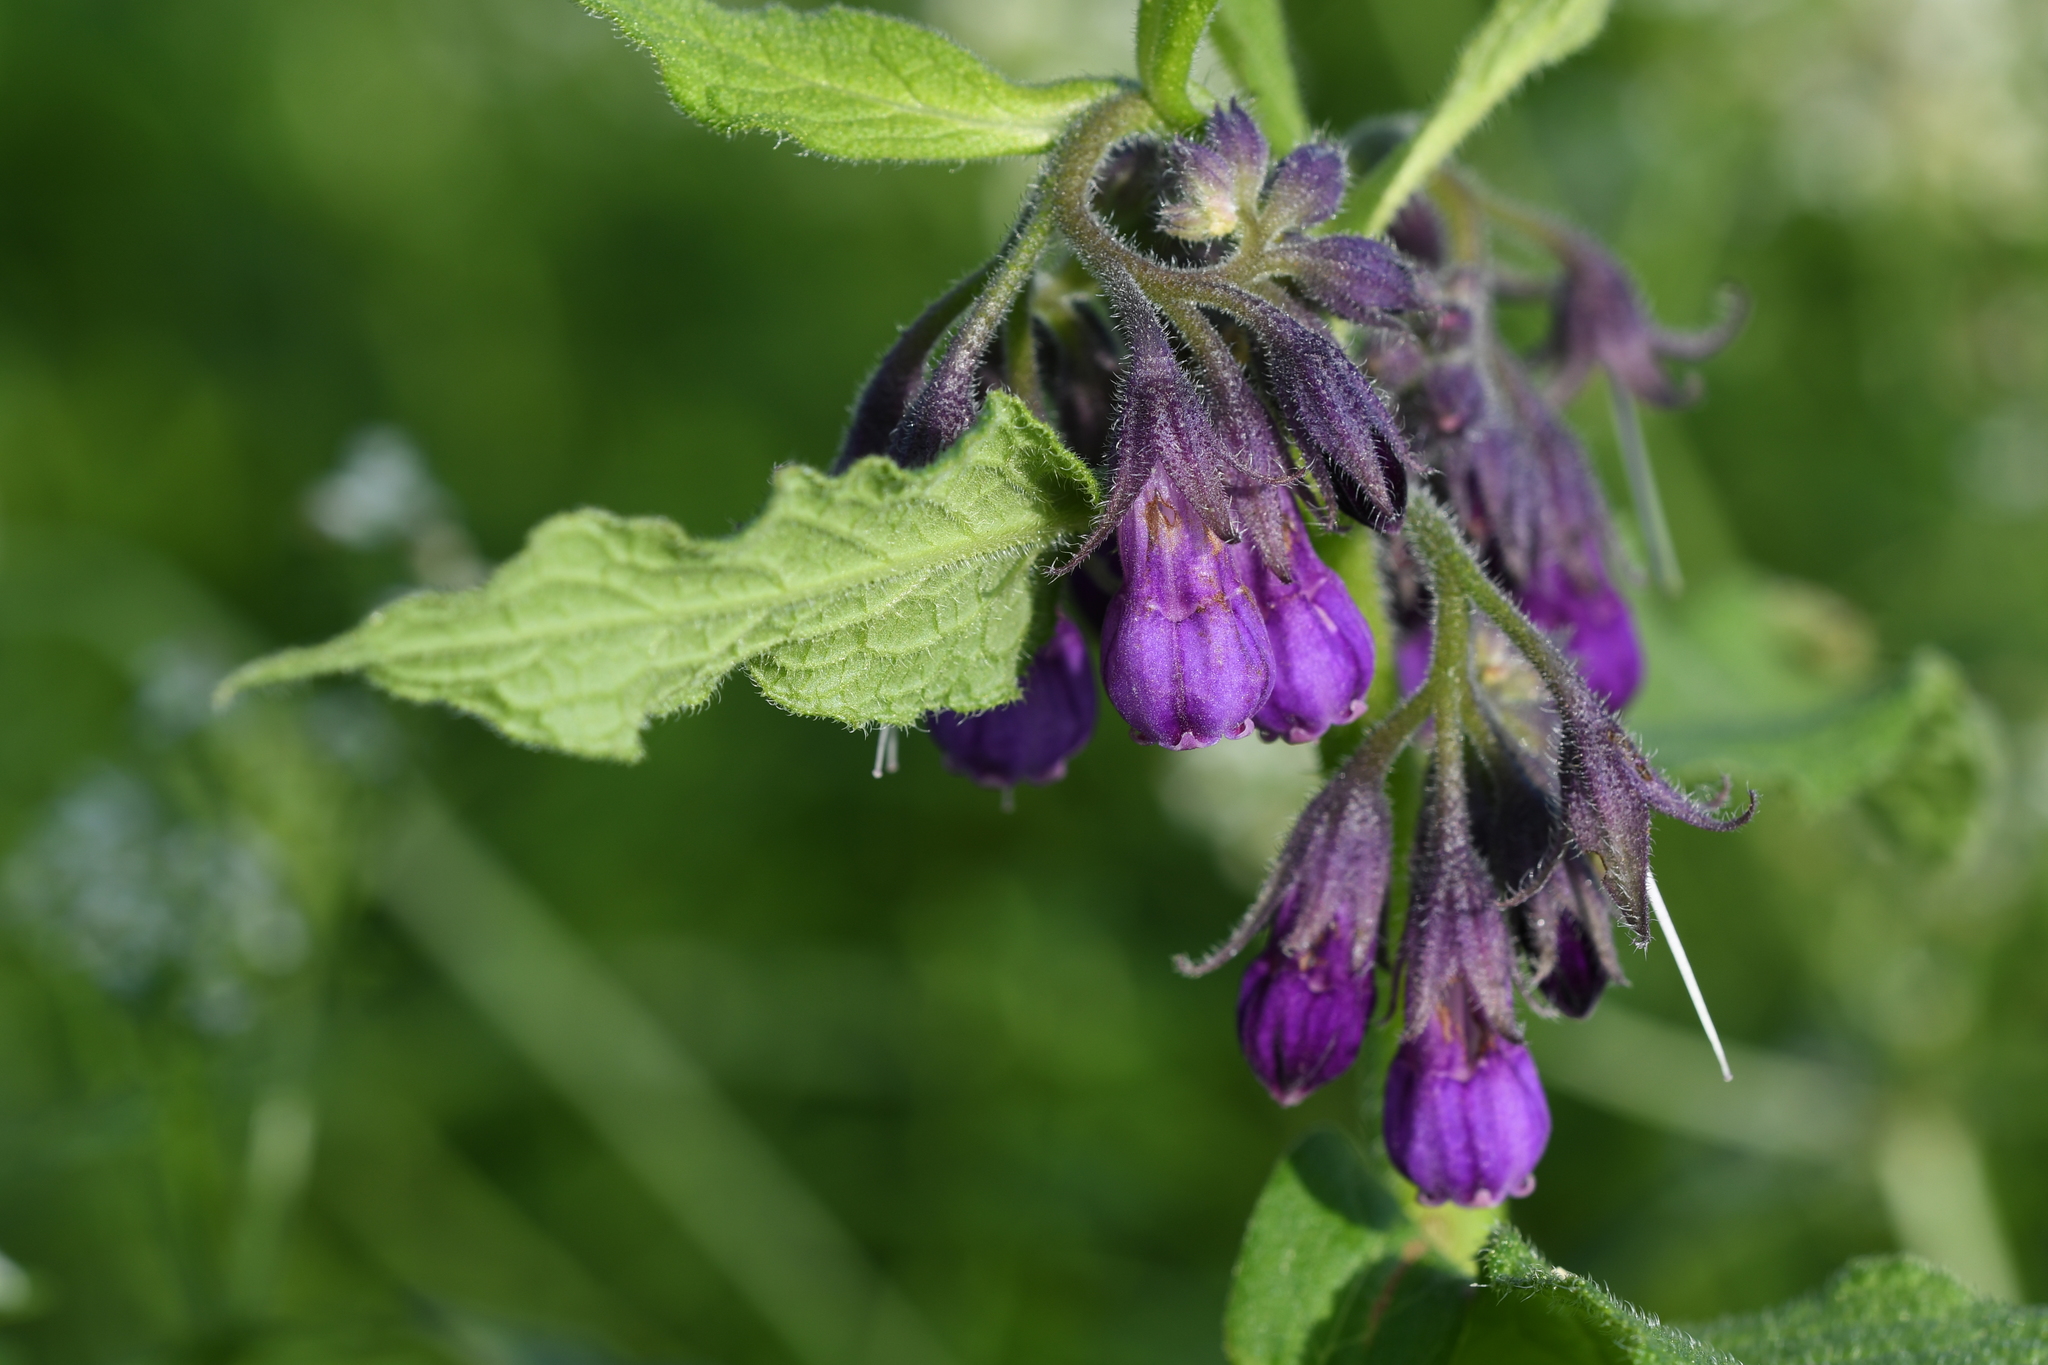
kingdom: Plantae
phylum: Tracheophyta
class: Magnoliopsida
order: Boraginales
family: Boraginaceae
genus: Symphytum
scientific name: Symphytum officinale
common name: Common comfrey
